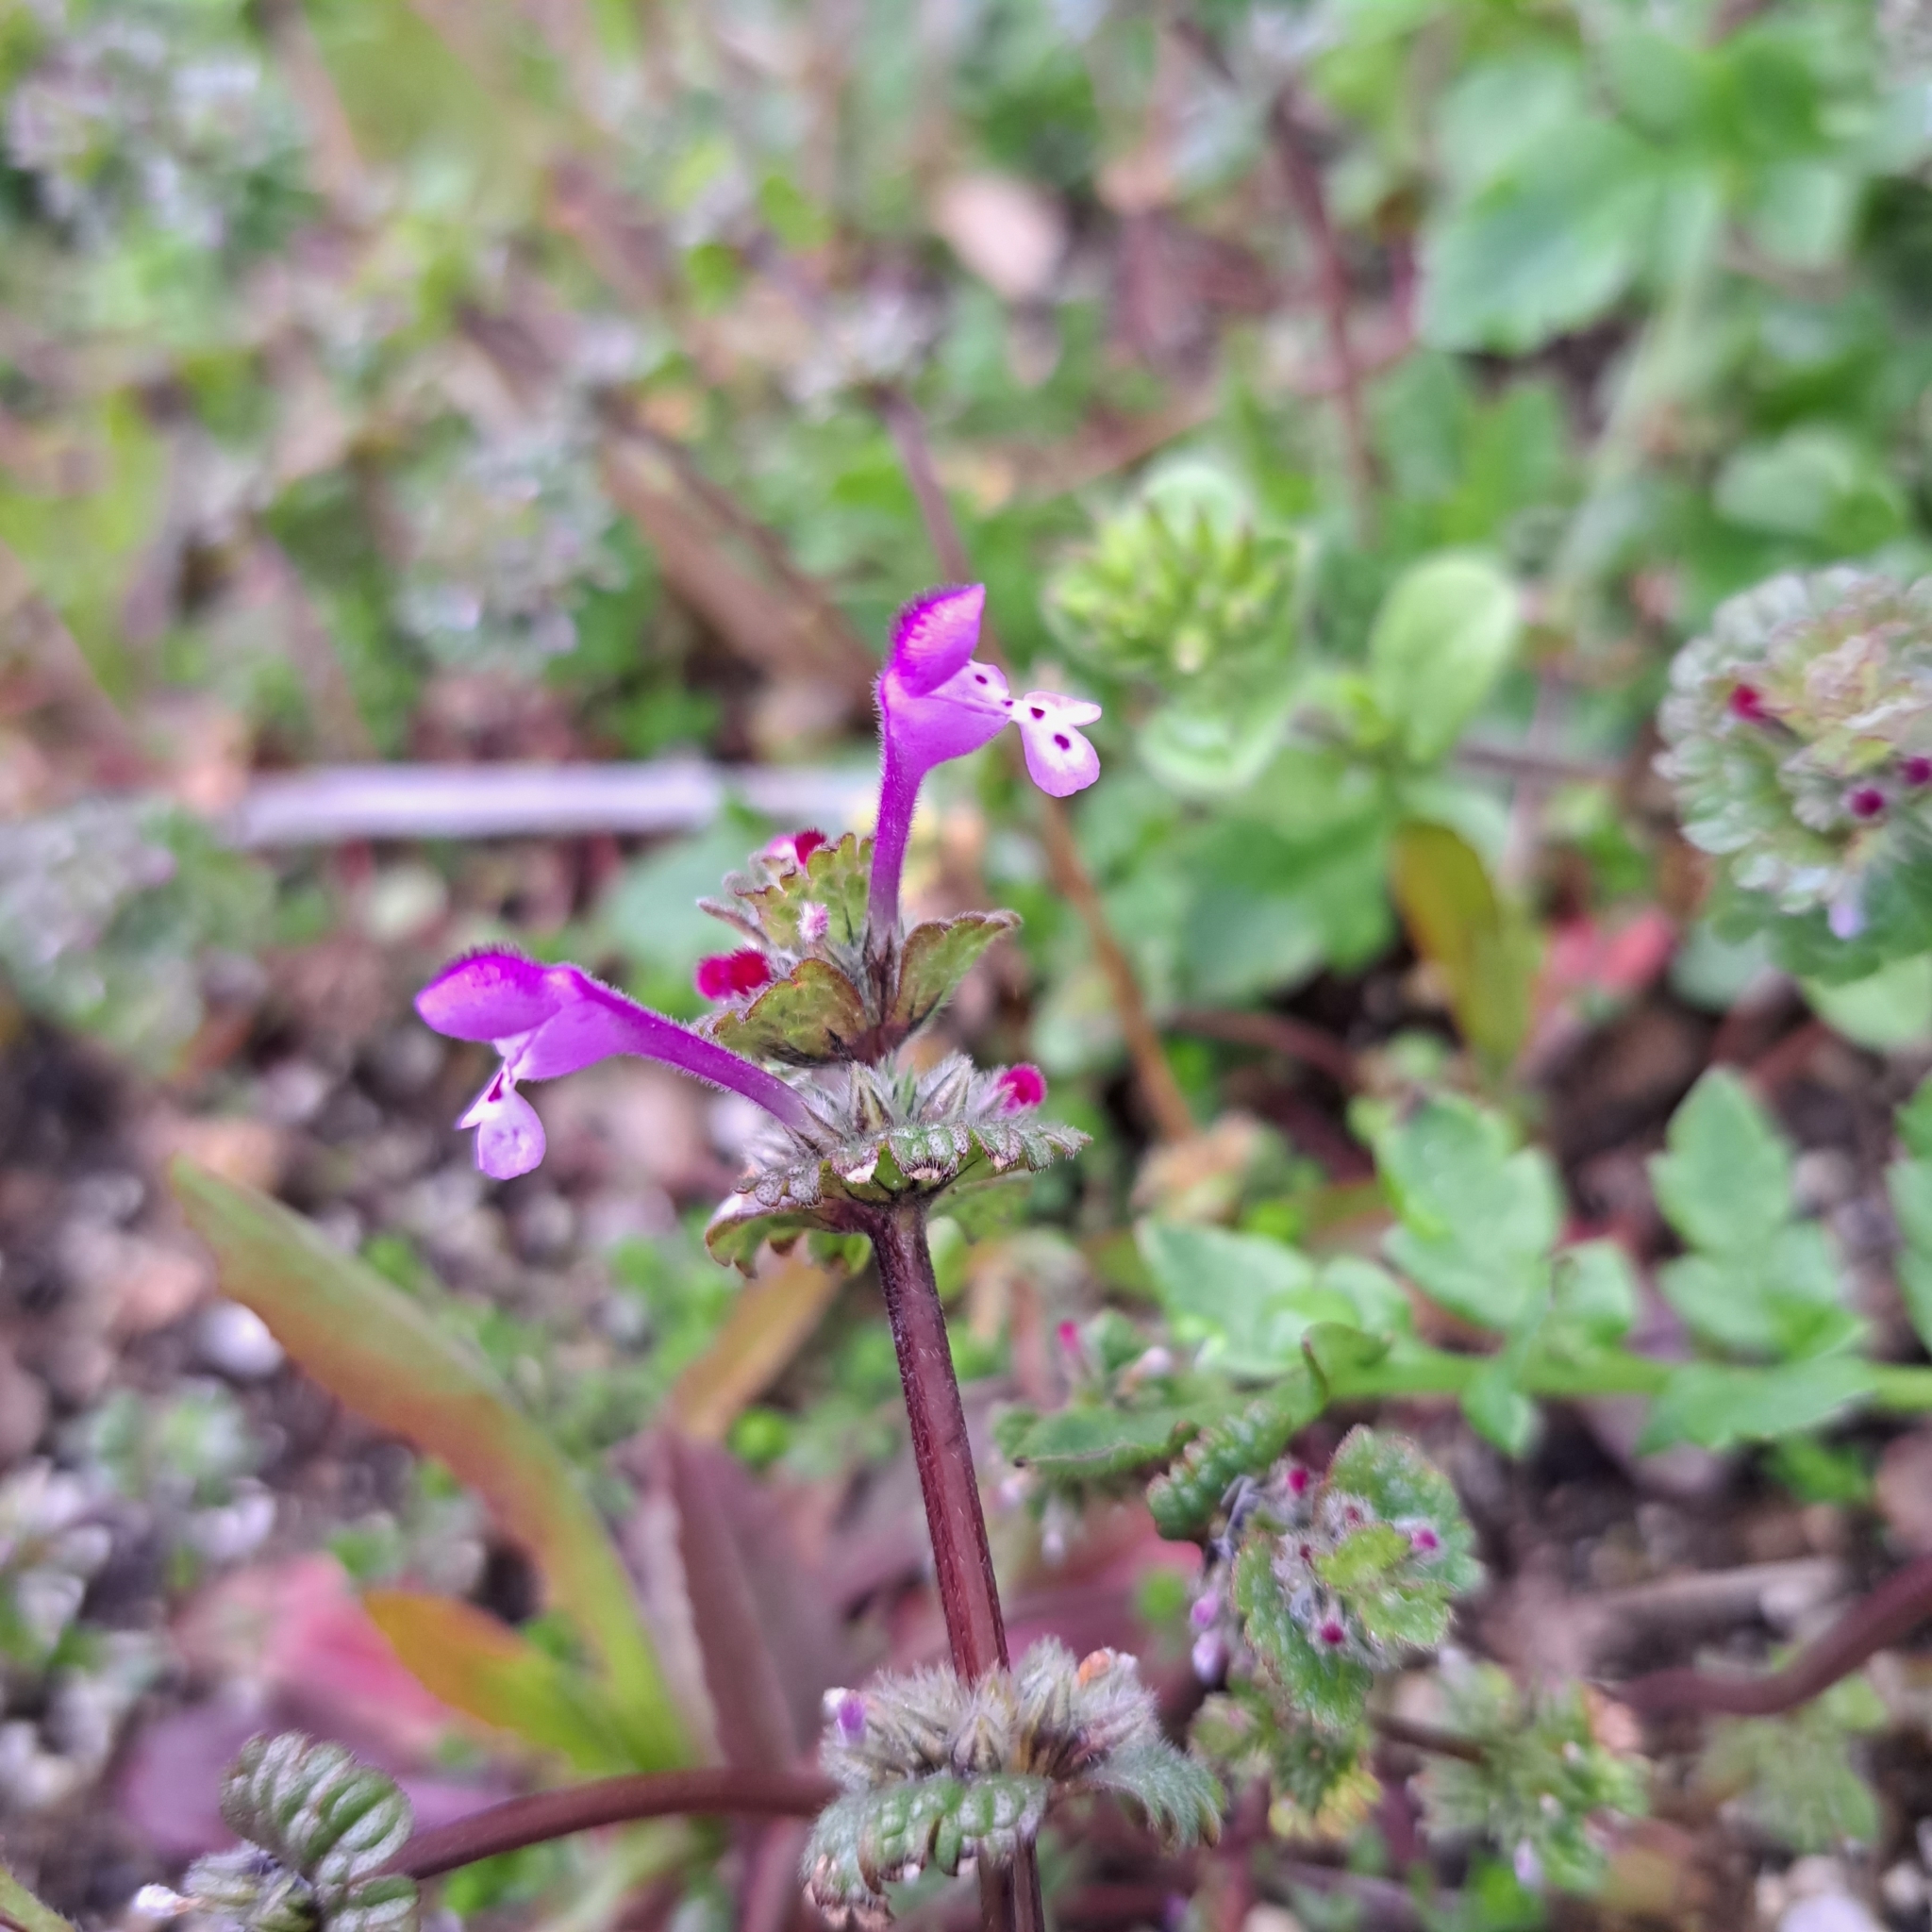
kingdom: Plantae
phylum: Tracheophyta
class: Magnoliopsida
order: Lamiales
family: Lamiaceae
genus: Lamium
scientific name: Lamium amplexicaule
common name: Henbit dead-nettle
